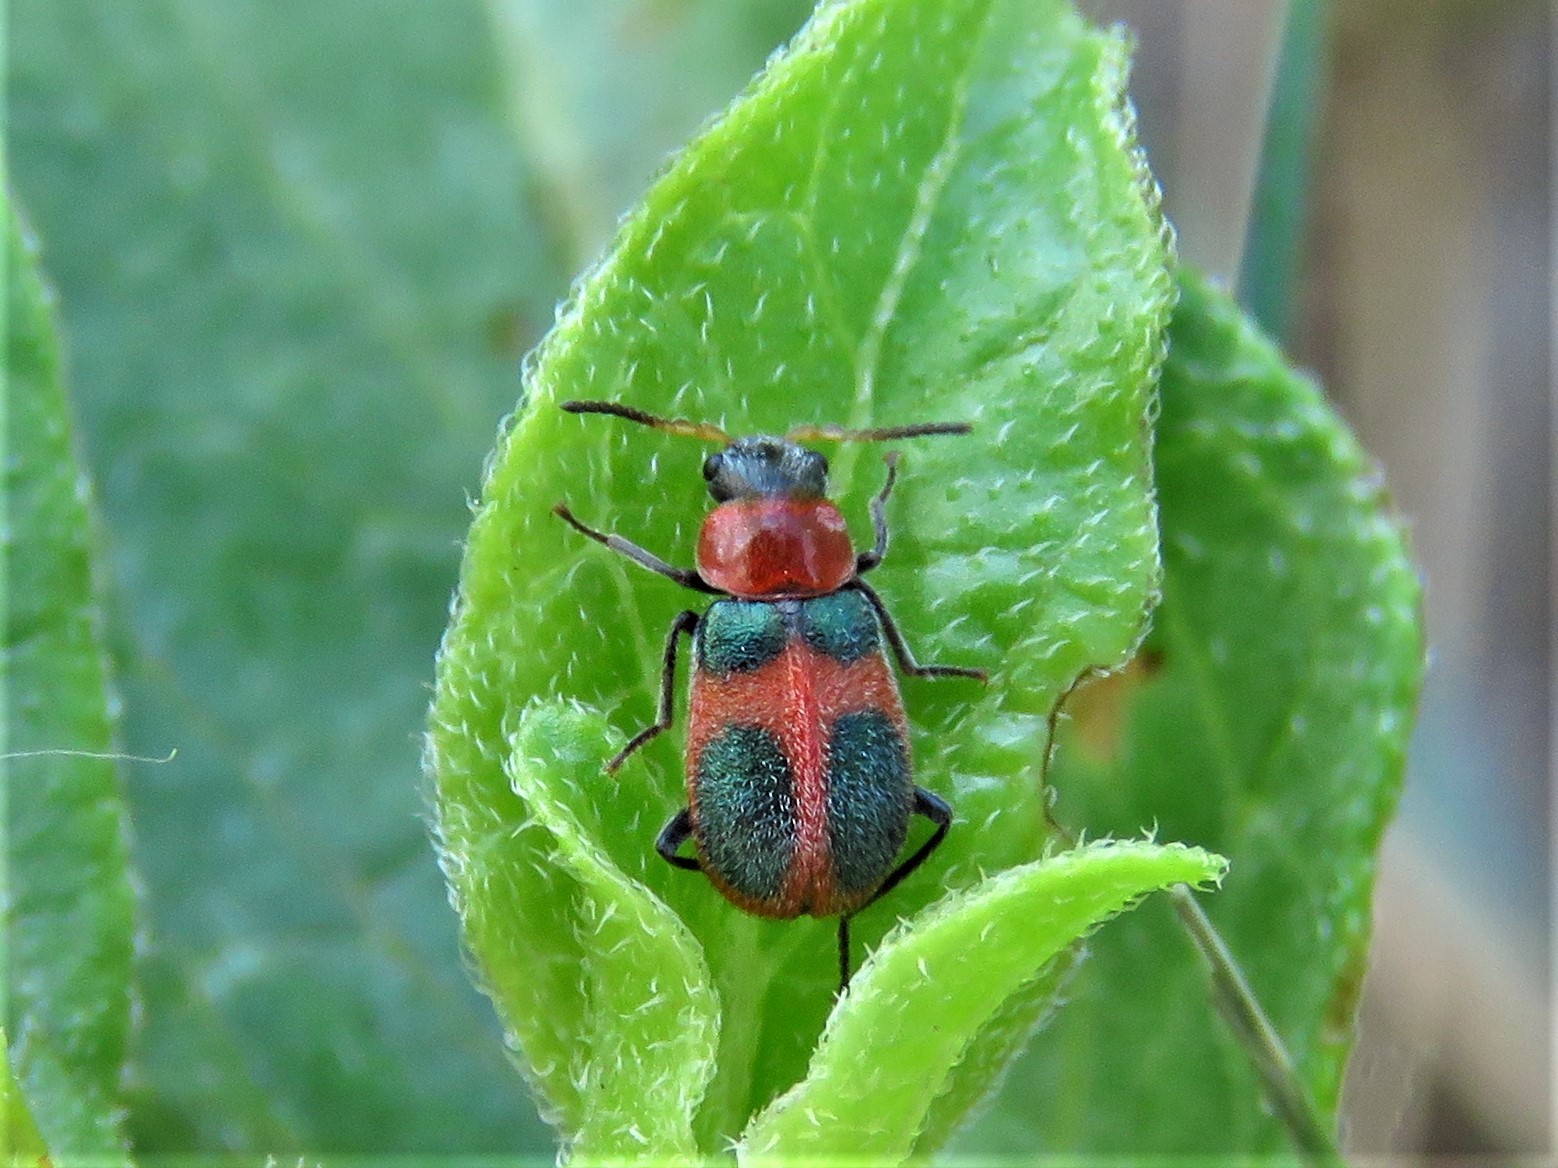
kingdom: Animalia
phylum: Arthropoda
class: Insecta
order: Coleoptera
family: Melyridae
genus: Collops
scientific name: Collops quadrimaculatus
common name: Four-spotted collops
